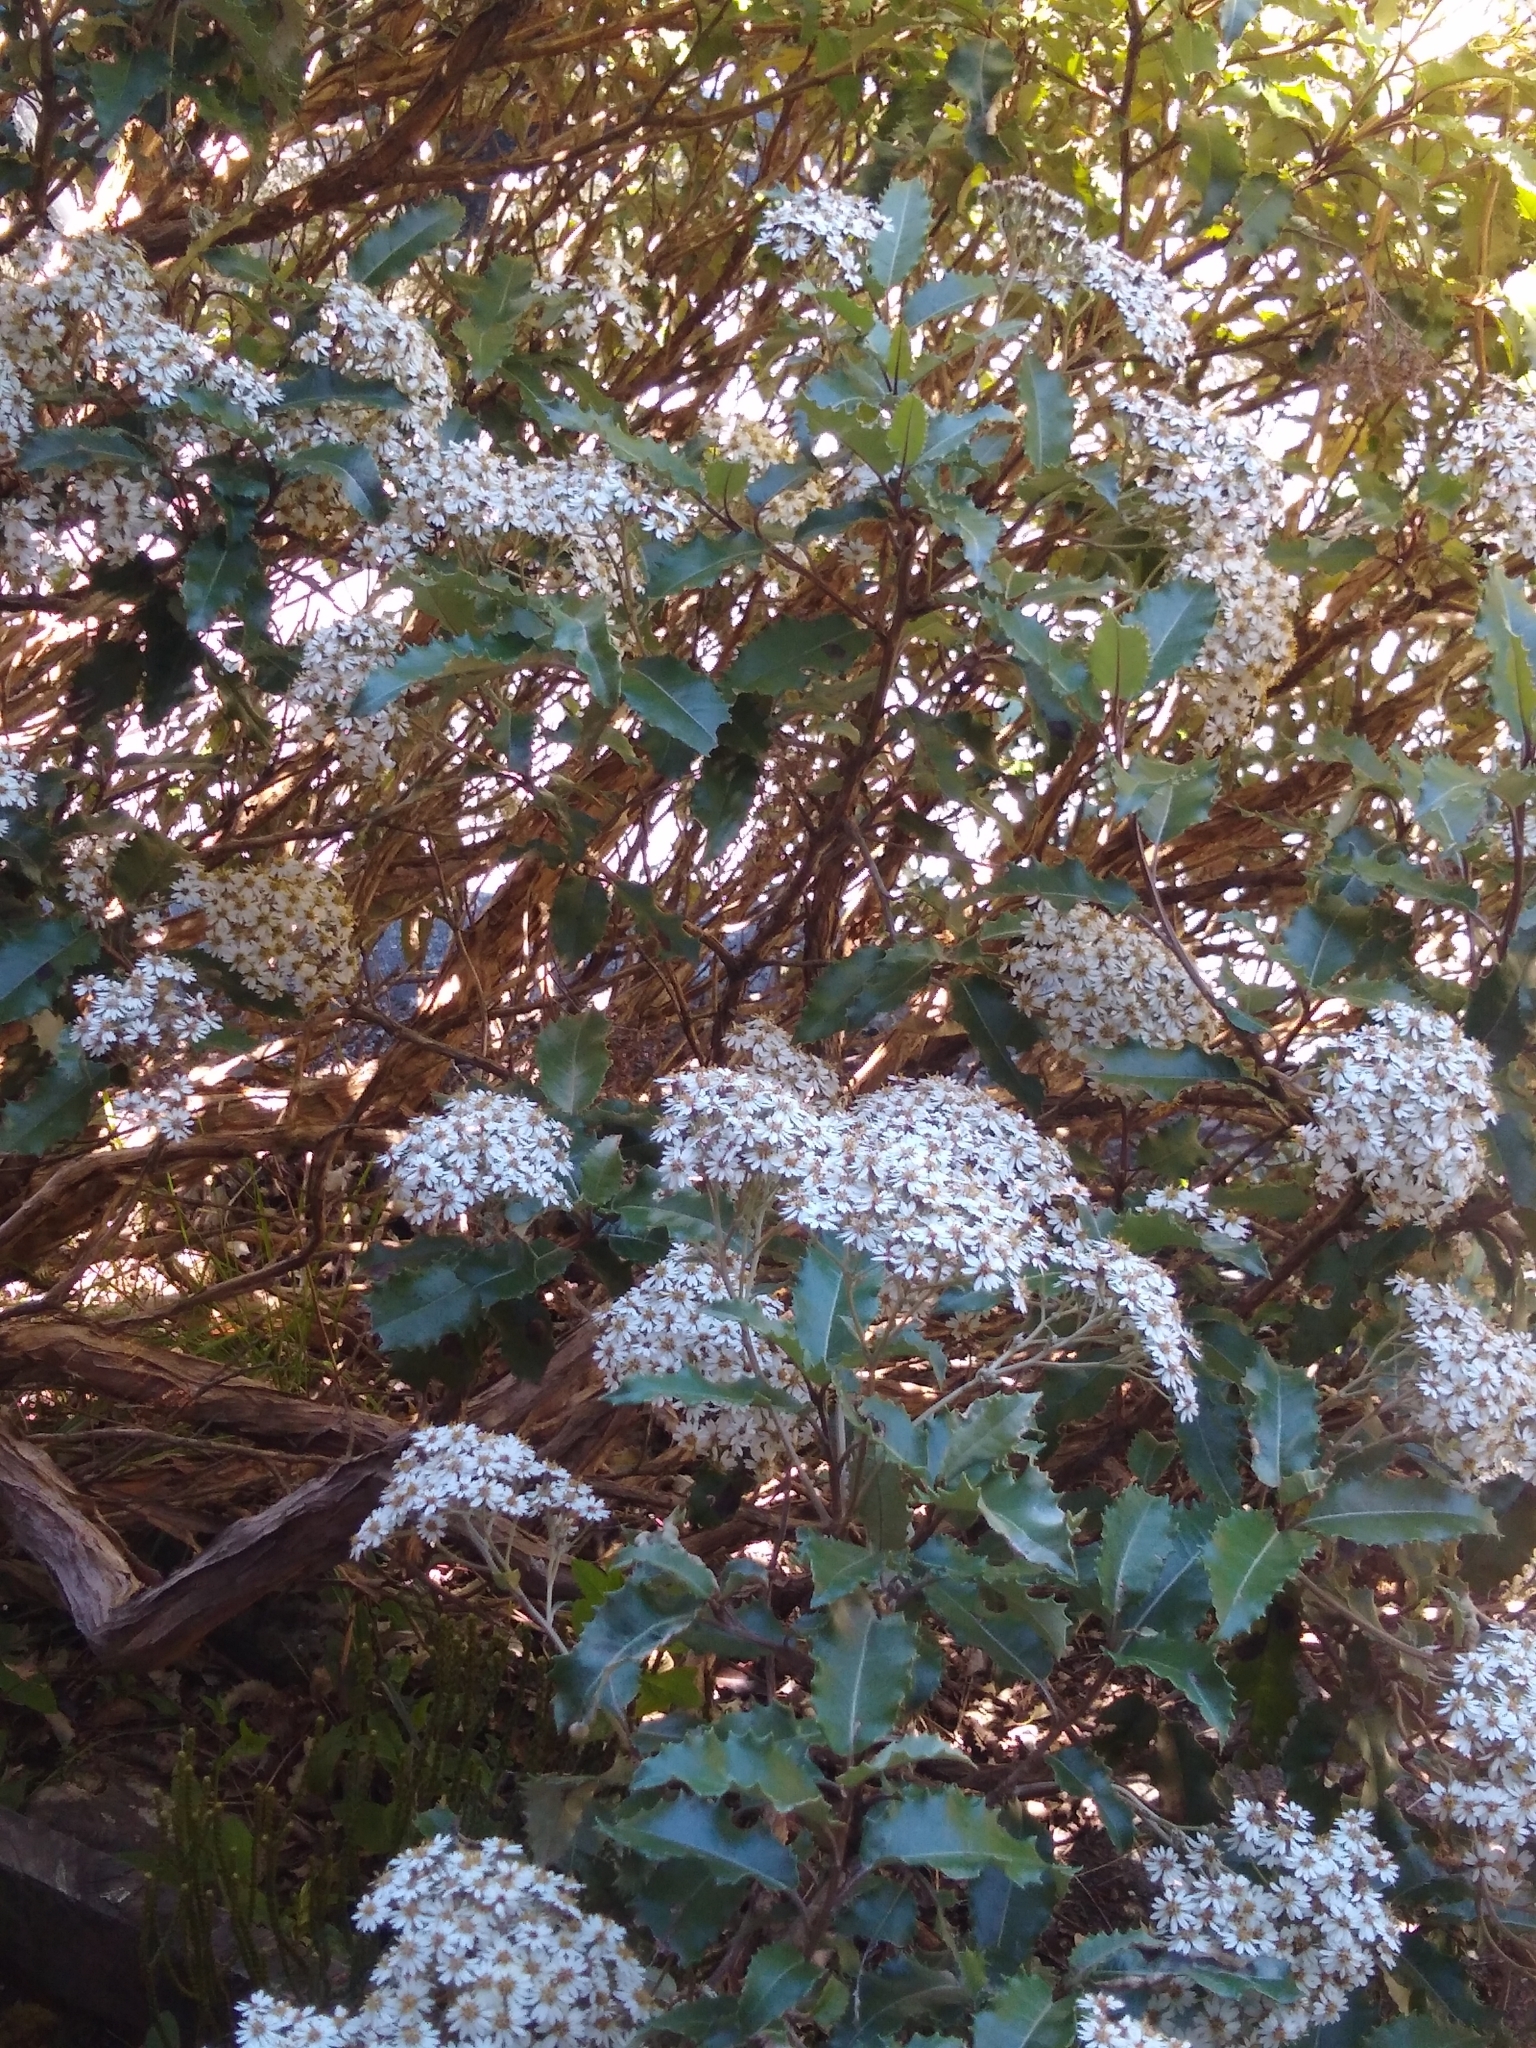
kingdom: Plantae
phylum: Tracheophyta
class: Magnoliopsida
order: Asterales
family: Asteraceae
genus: Olearia
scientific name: Olearia macrodonta
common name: New zealand holly
